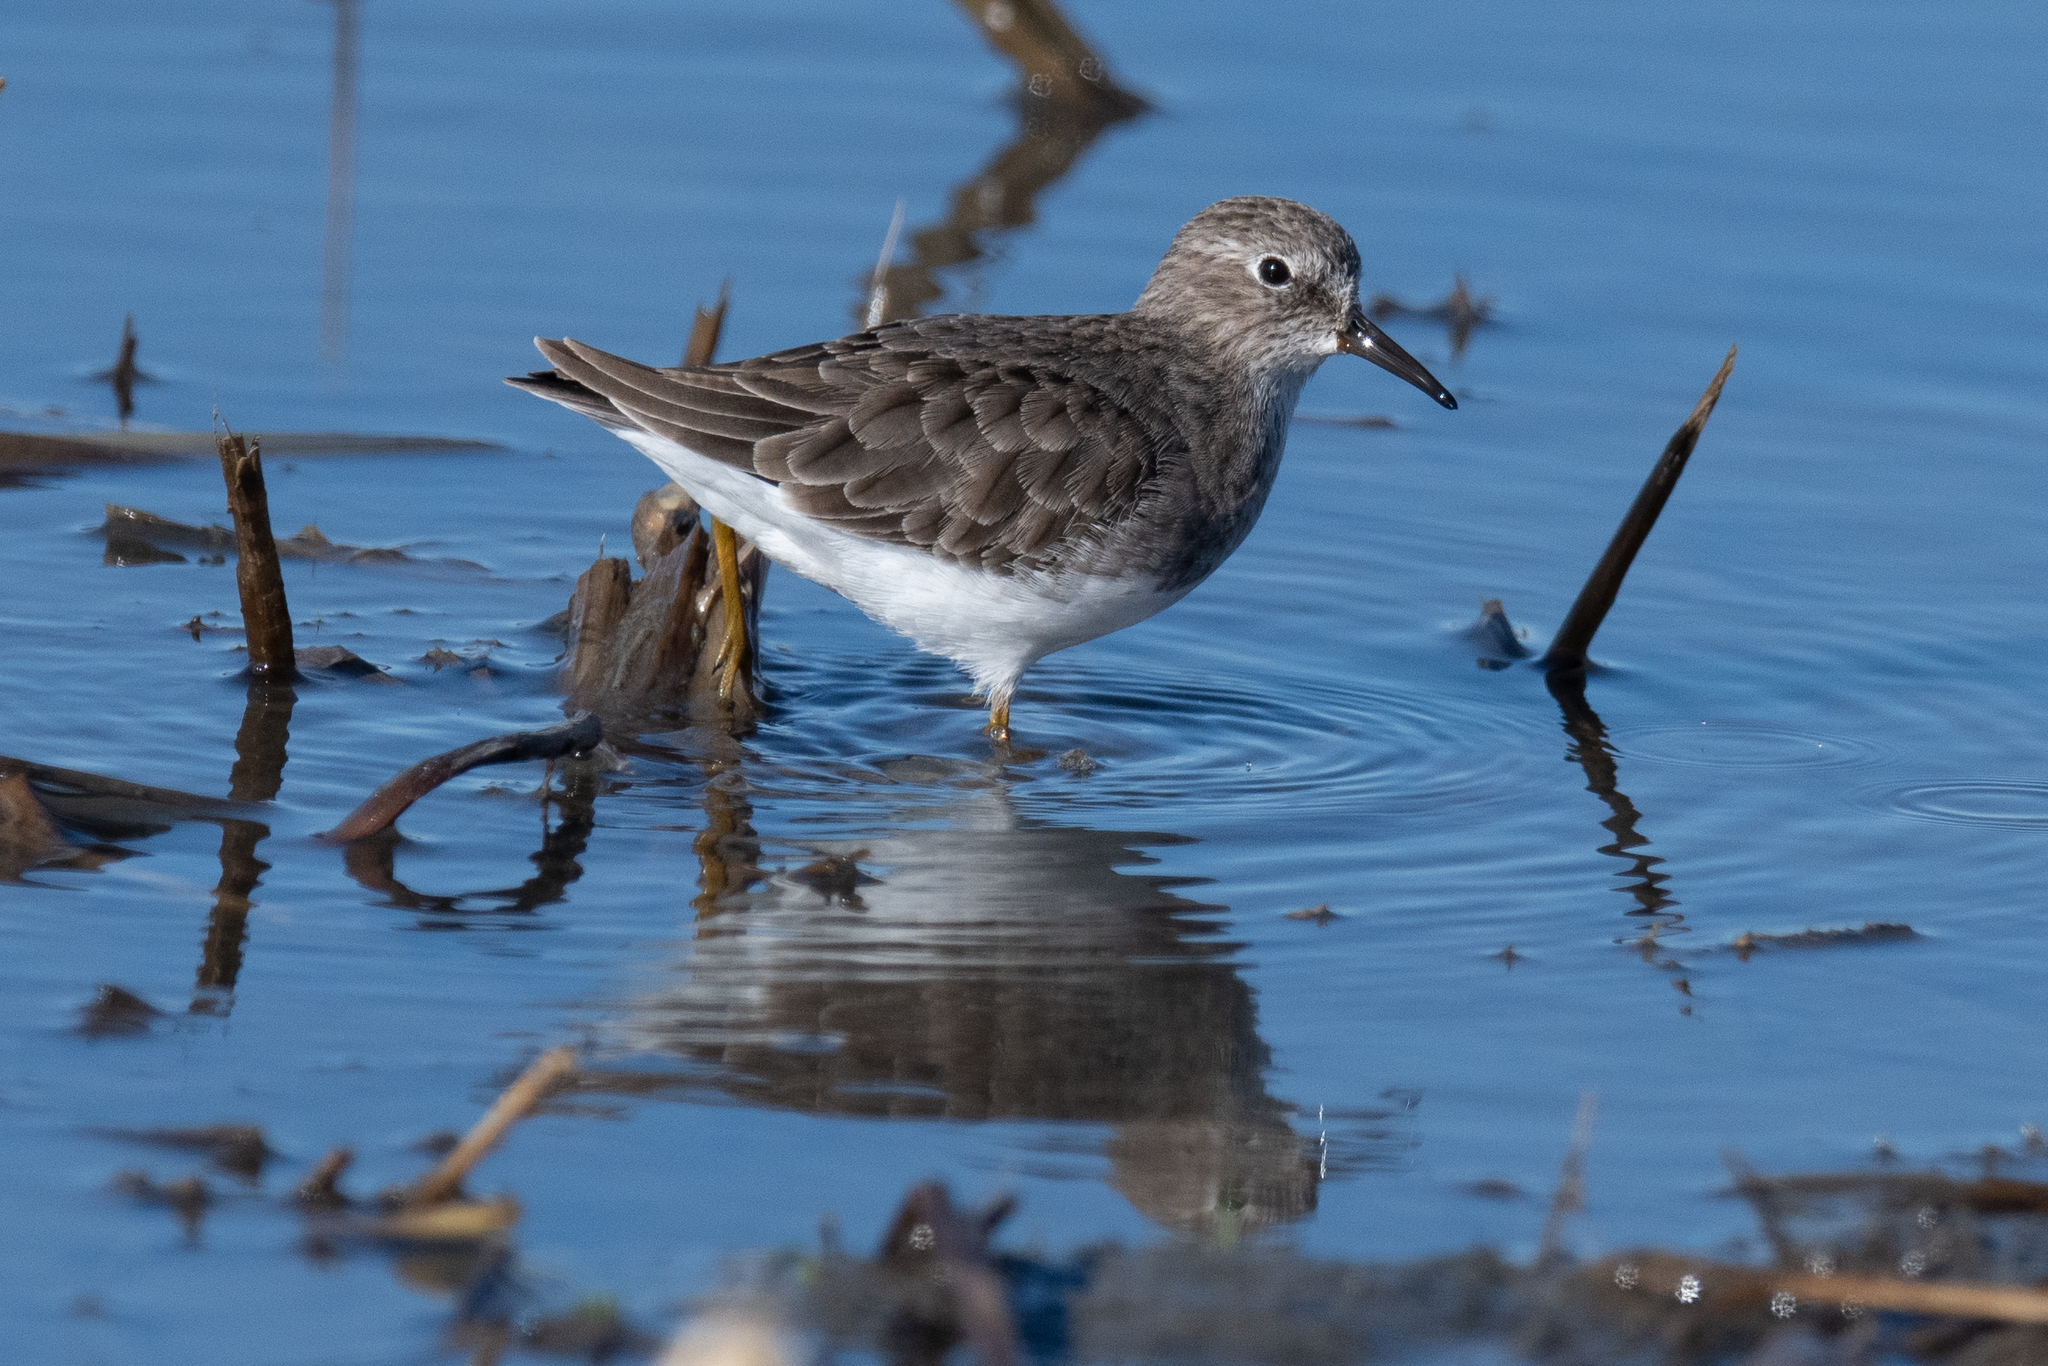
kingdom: Animalia
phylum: Chordata
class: Aves
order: Charadriiformes
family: Scolopacidae
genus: Calidris
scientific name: Calidris minutilla
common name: Least sandpiper
